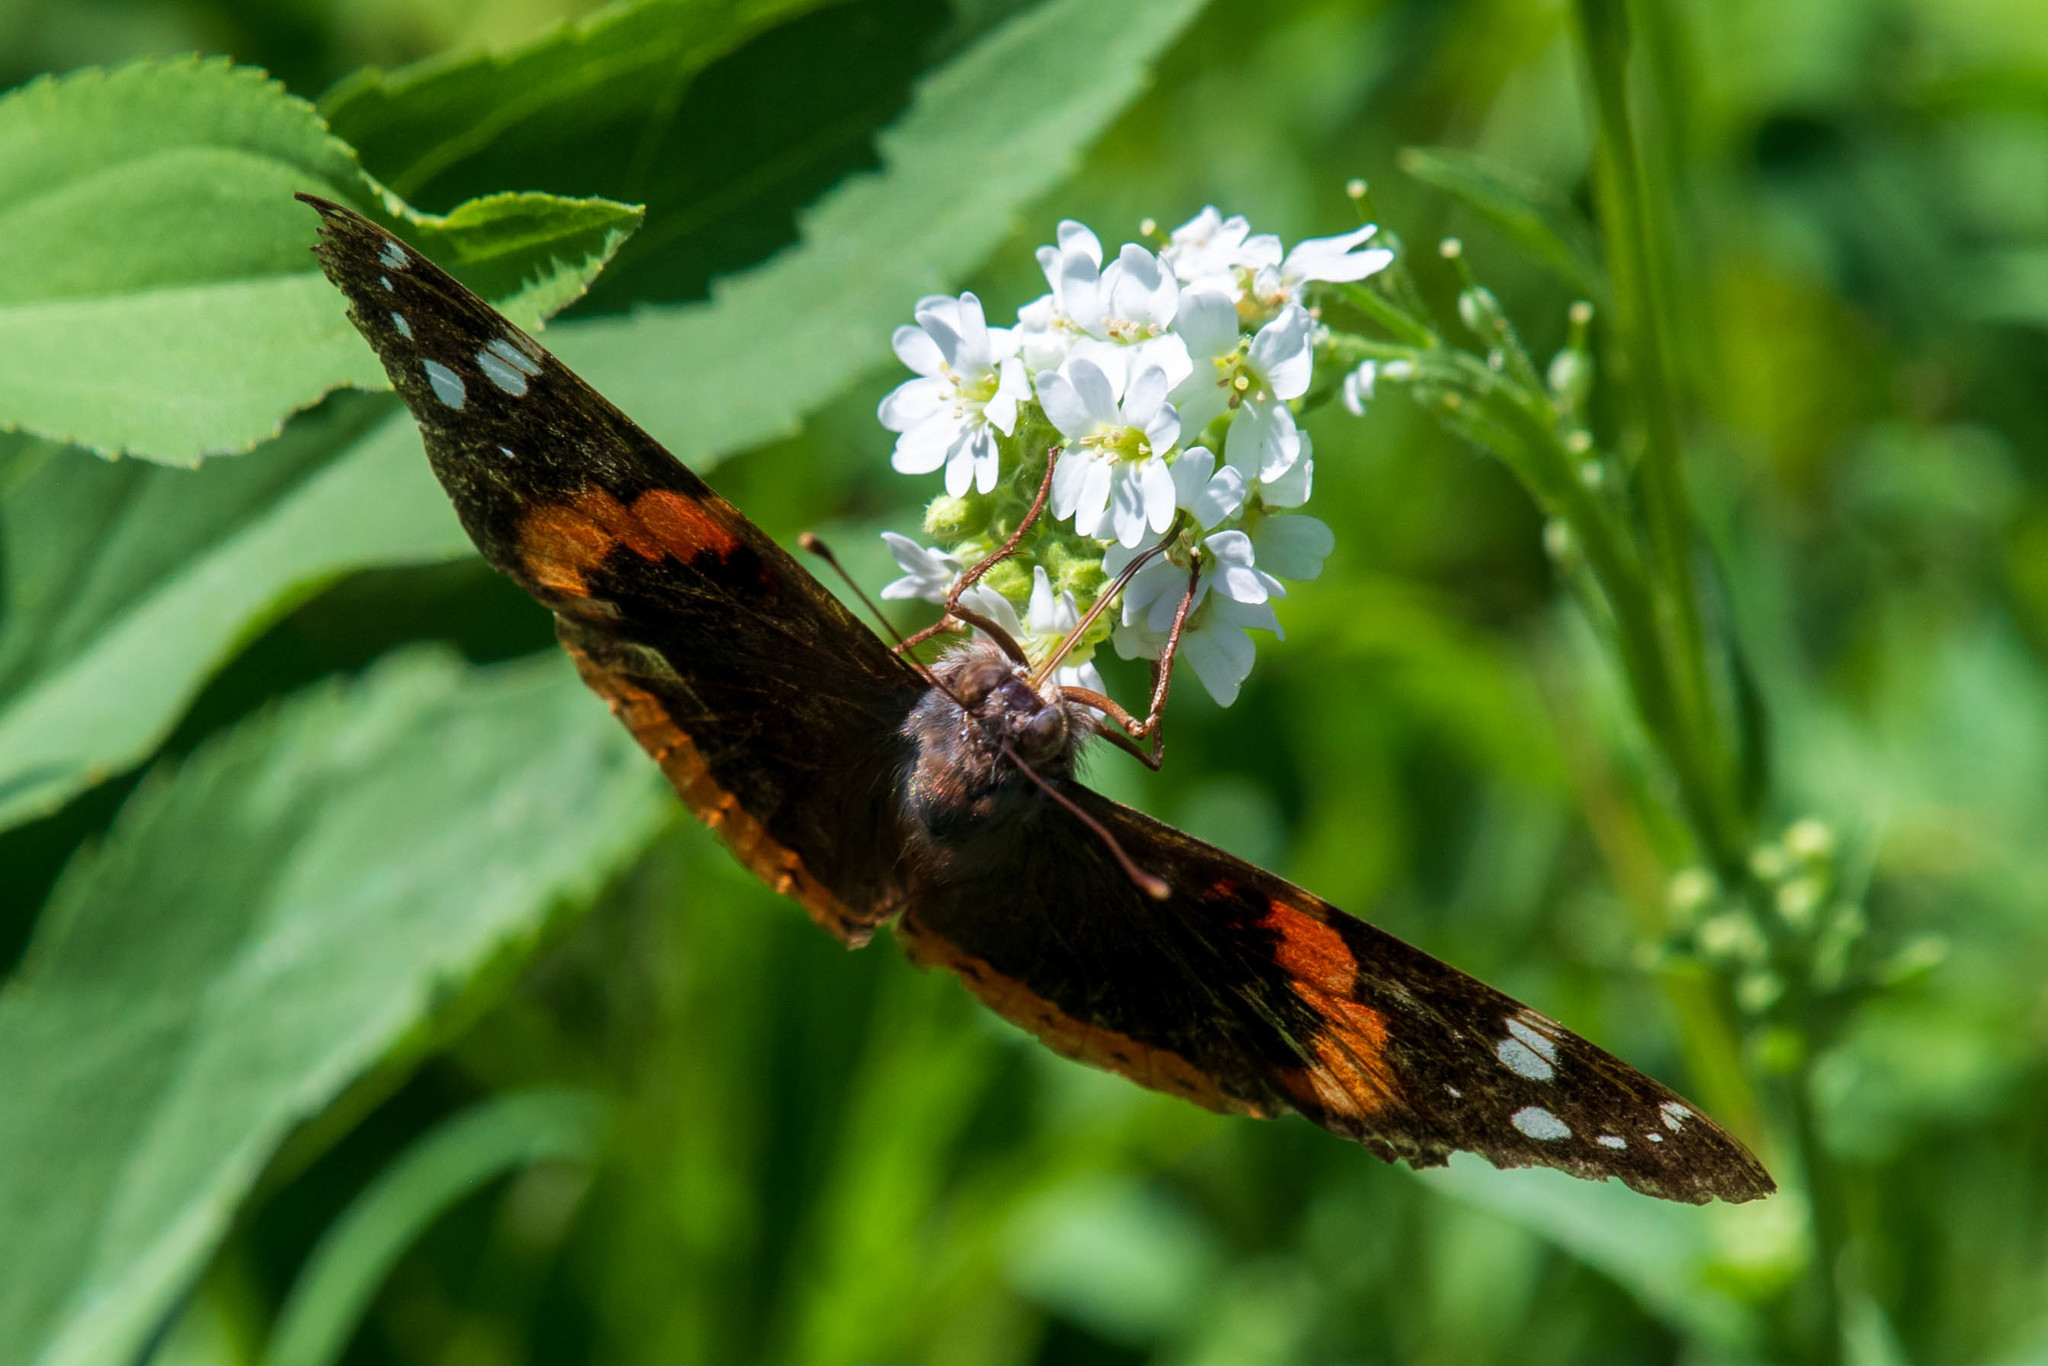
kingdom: Animalia
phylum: Arthropoda
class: Insecta
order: Lepidoptera
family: Nymphalidae
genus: Vanessa
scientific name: Vanessa atalanta
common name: Red admiral
